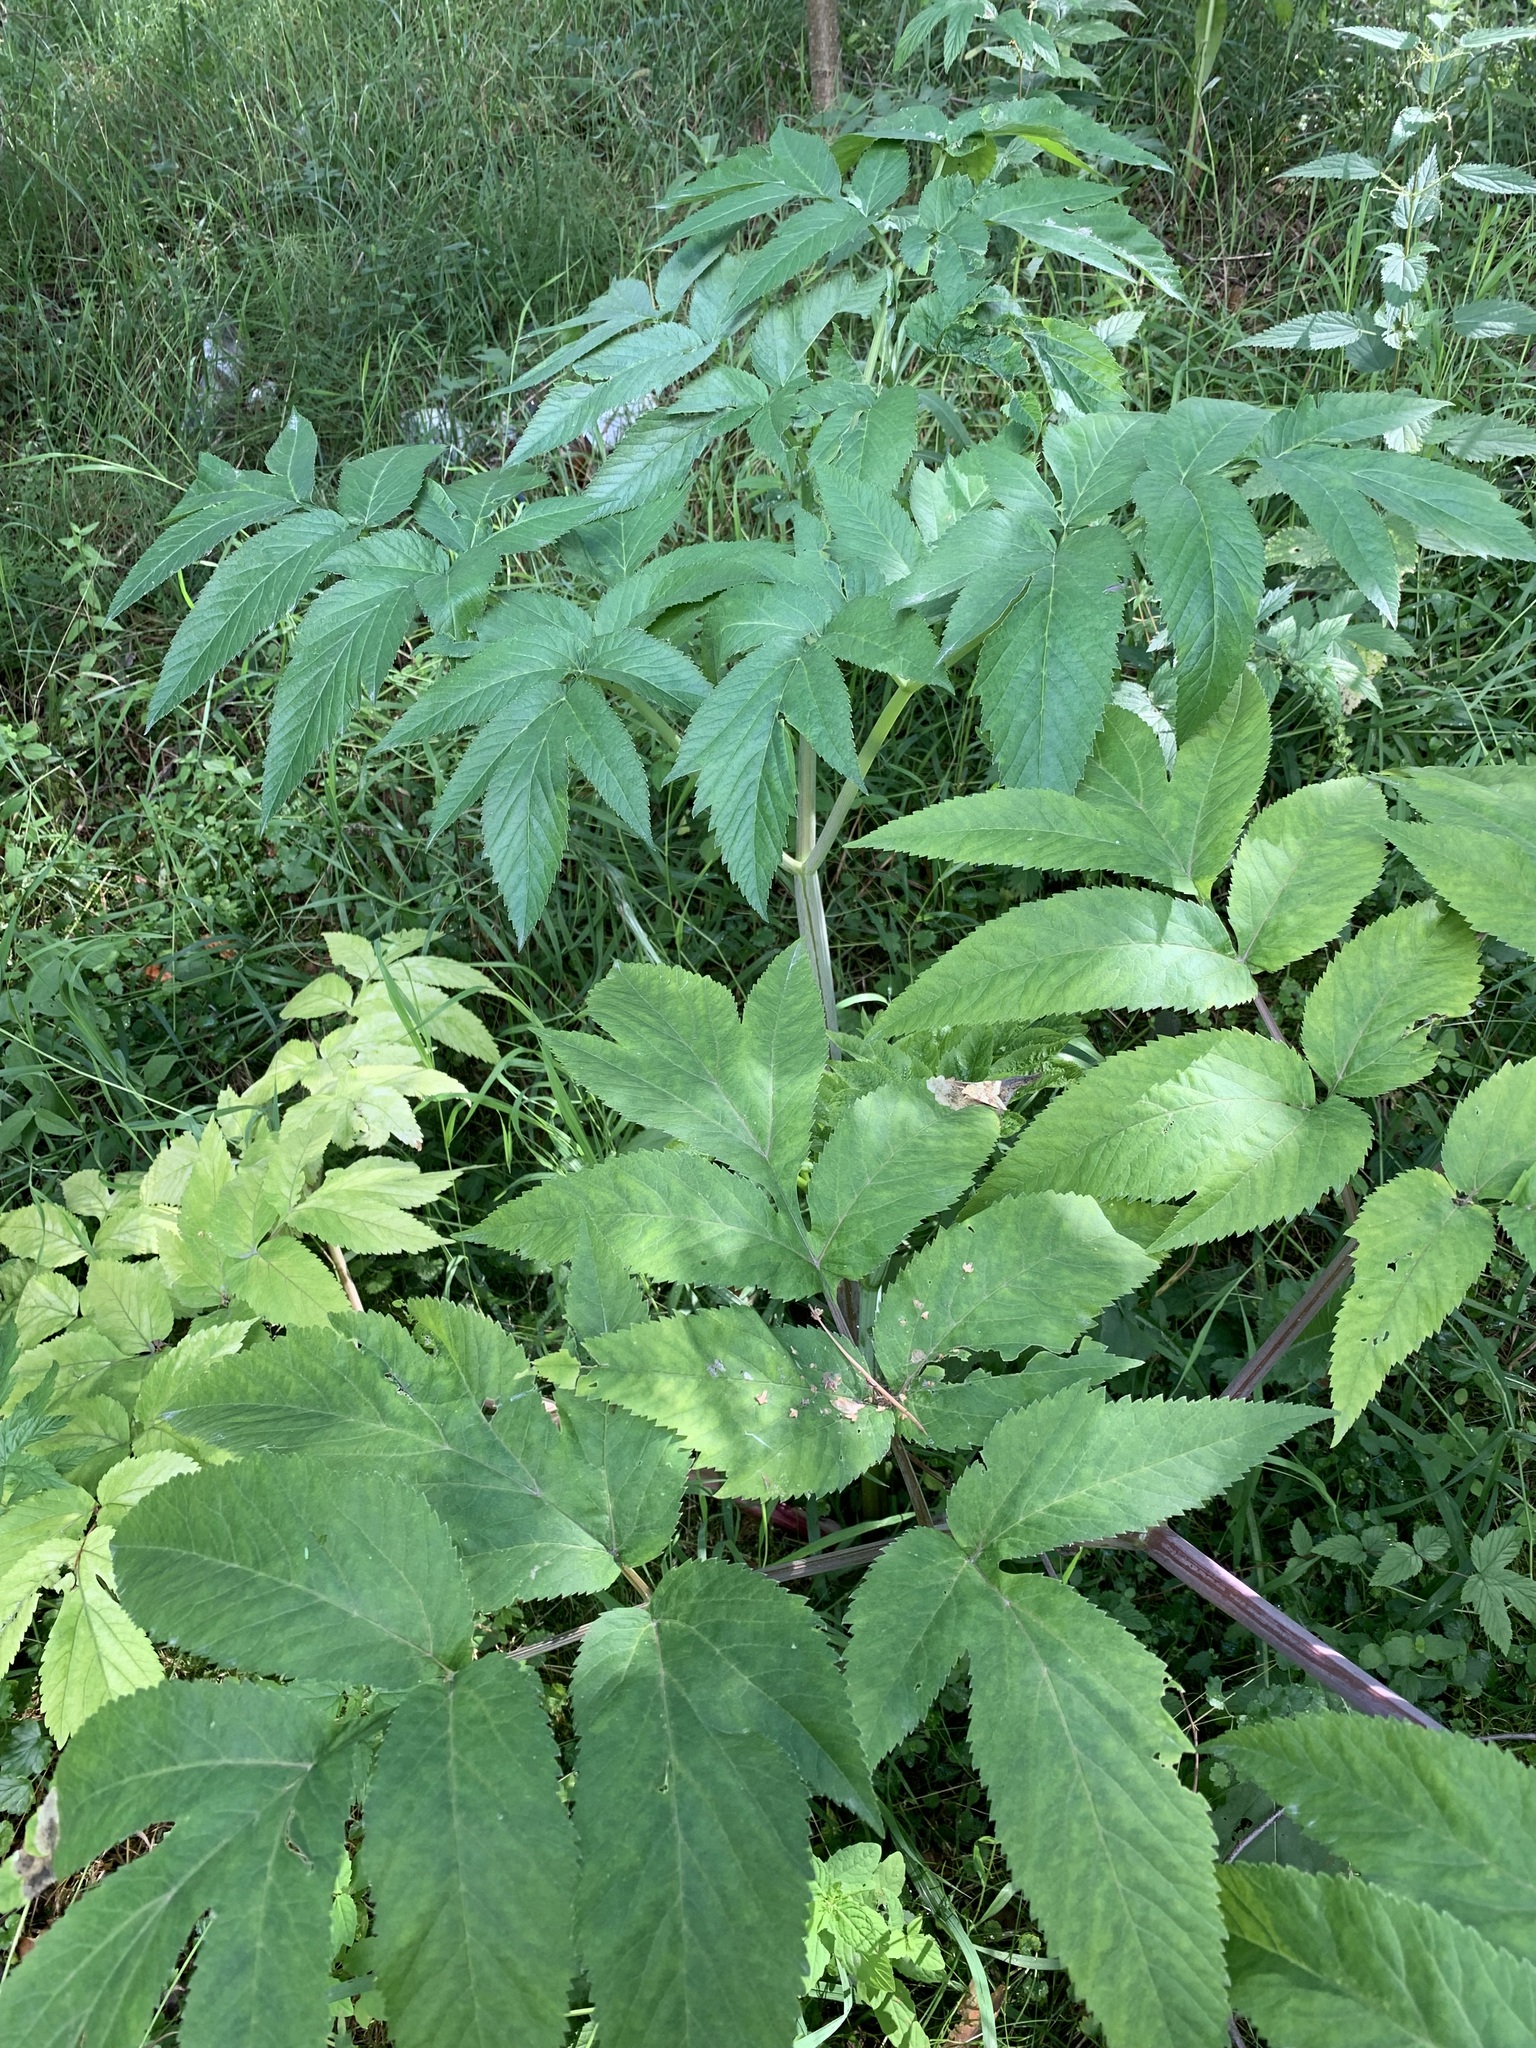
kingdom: Plantae
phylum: Tracheophyta
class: Magnoliopsida
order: Apiales
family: Apiaceae
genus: Angelica
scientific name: Angelica decurrens
